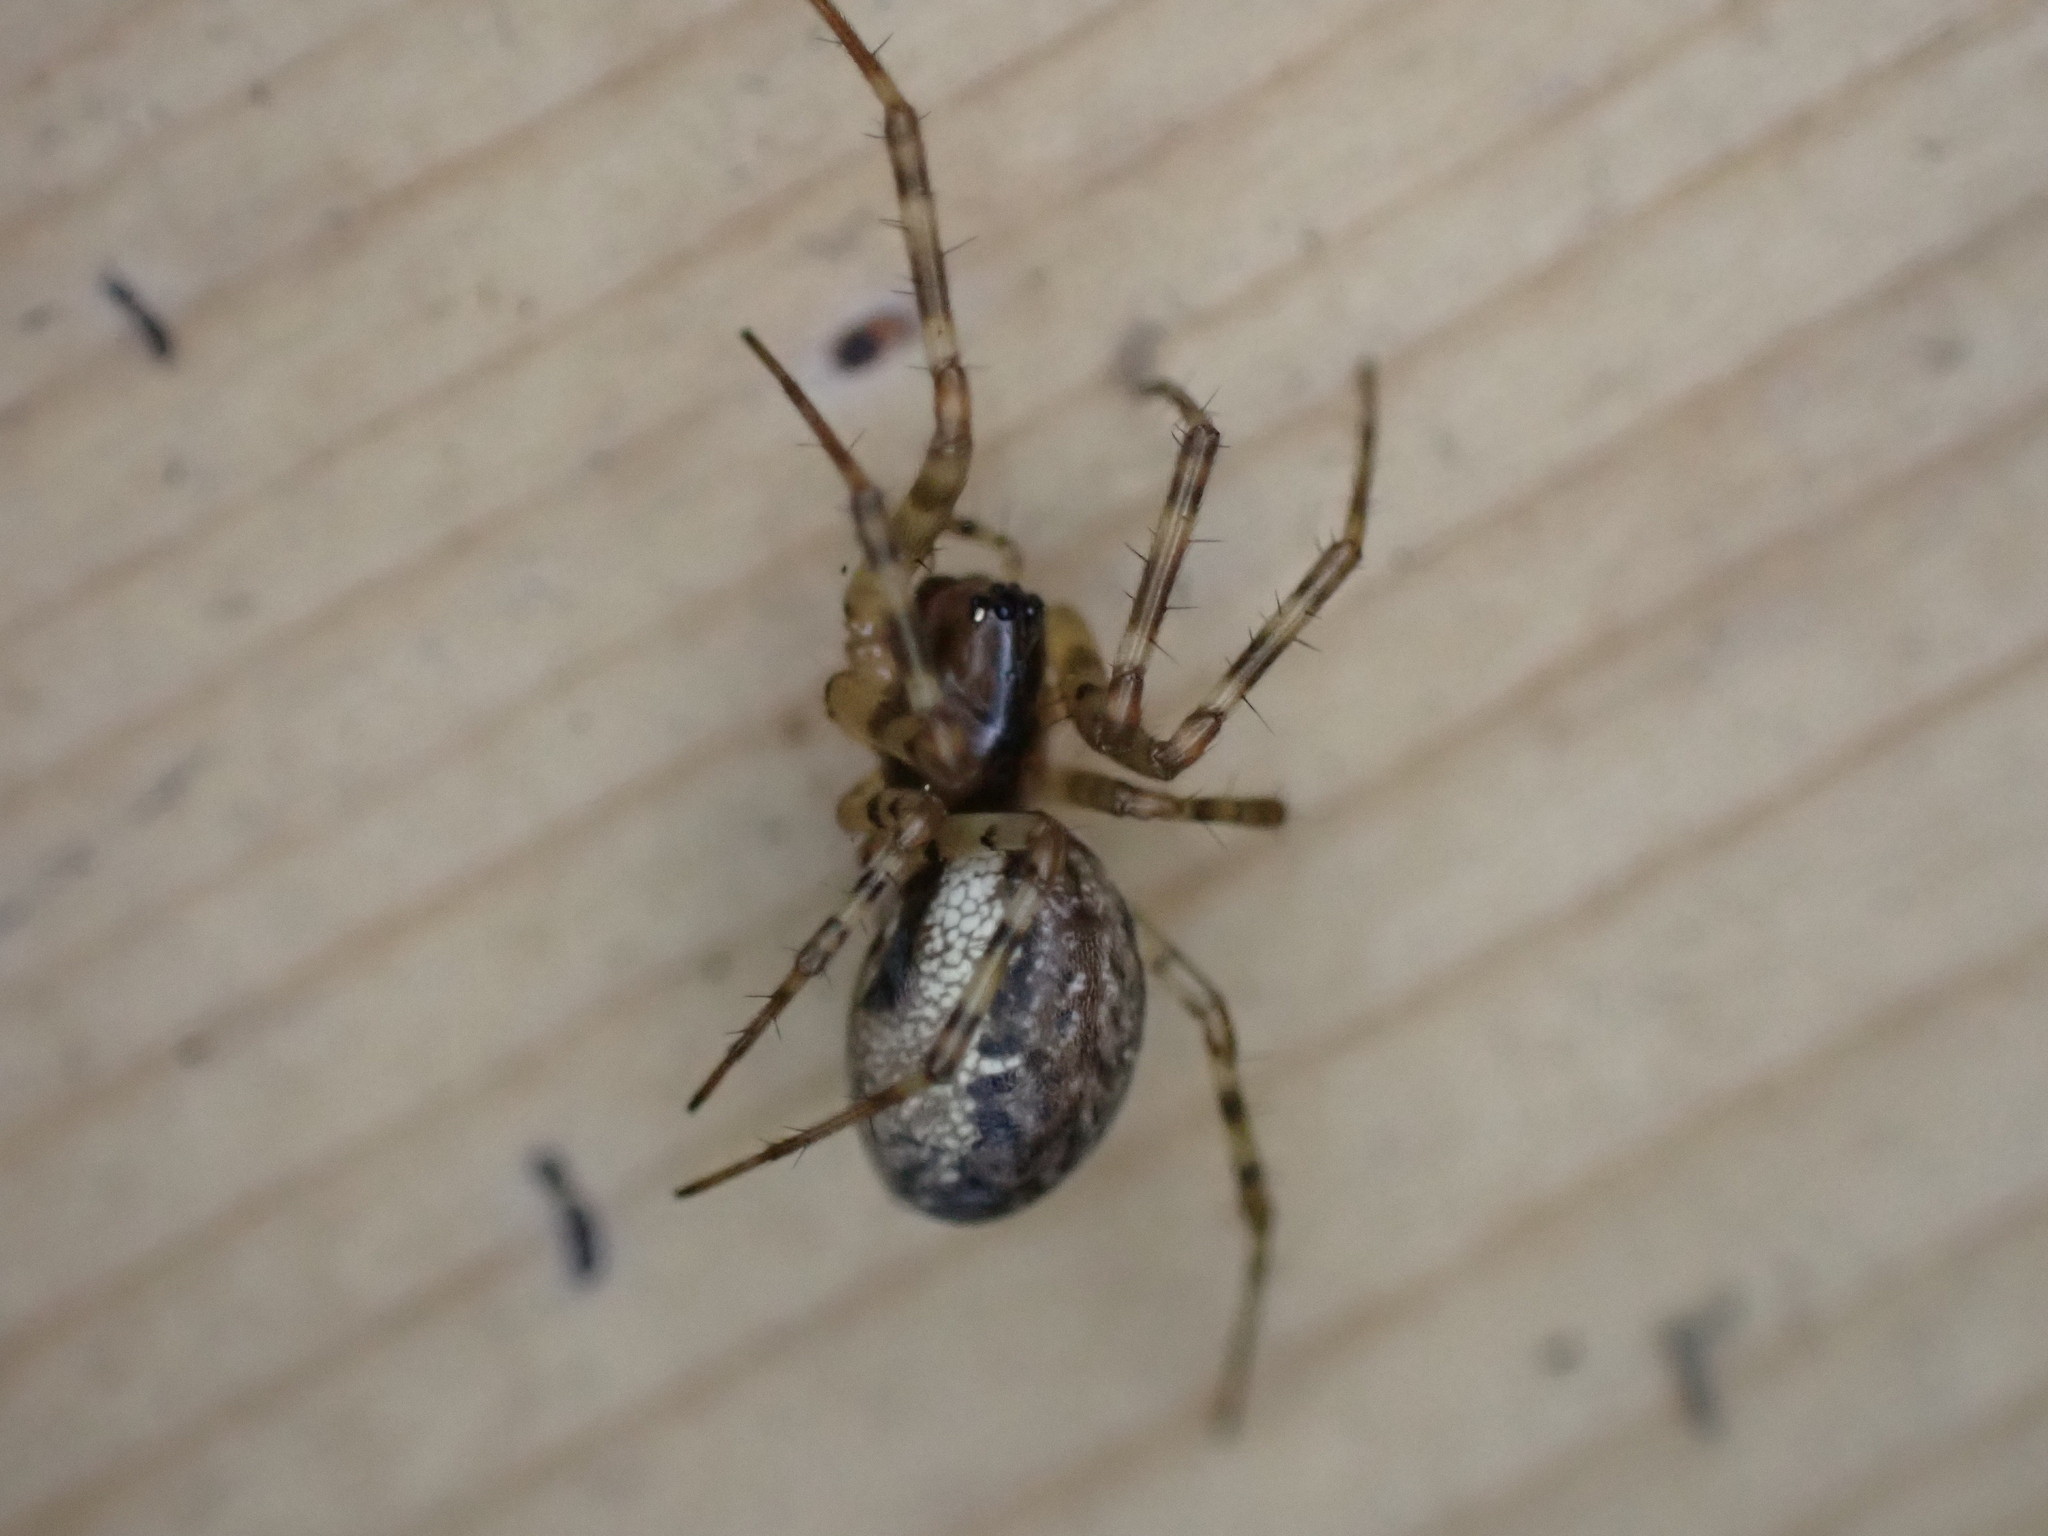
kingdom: Animalia
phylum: Arthropoda
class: Arachnida
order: Araneae
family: Linyphiidae
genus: Neriene
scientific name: Neriene montana
